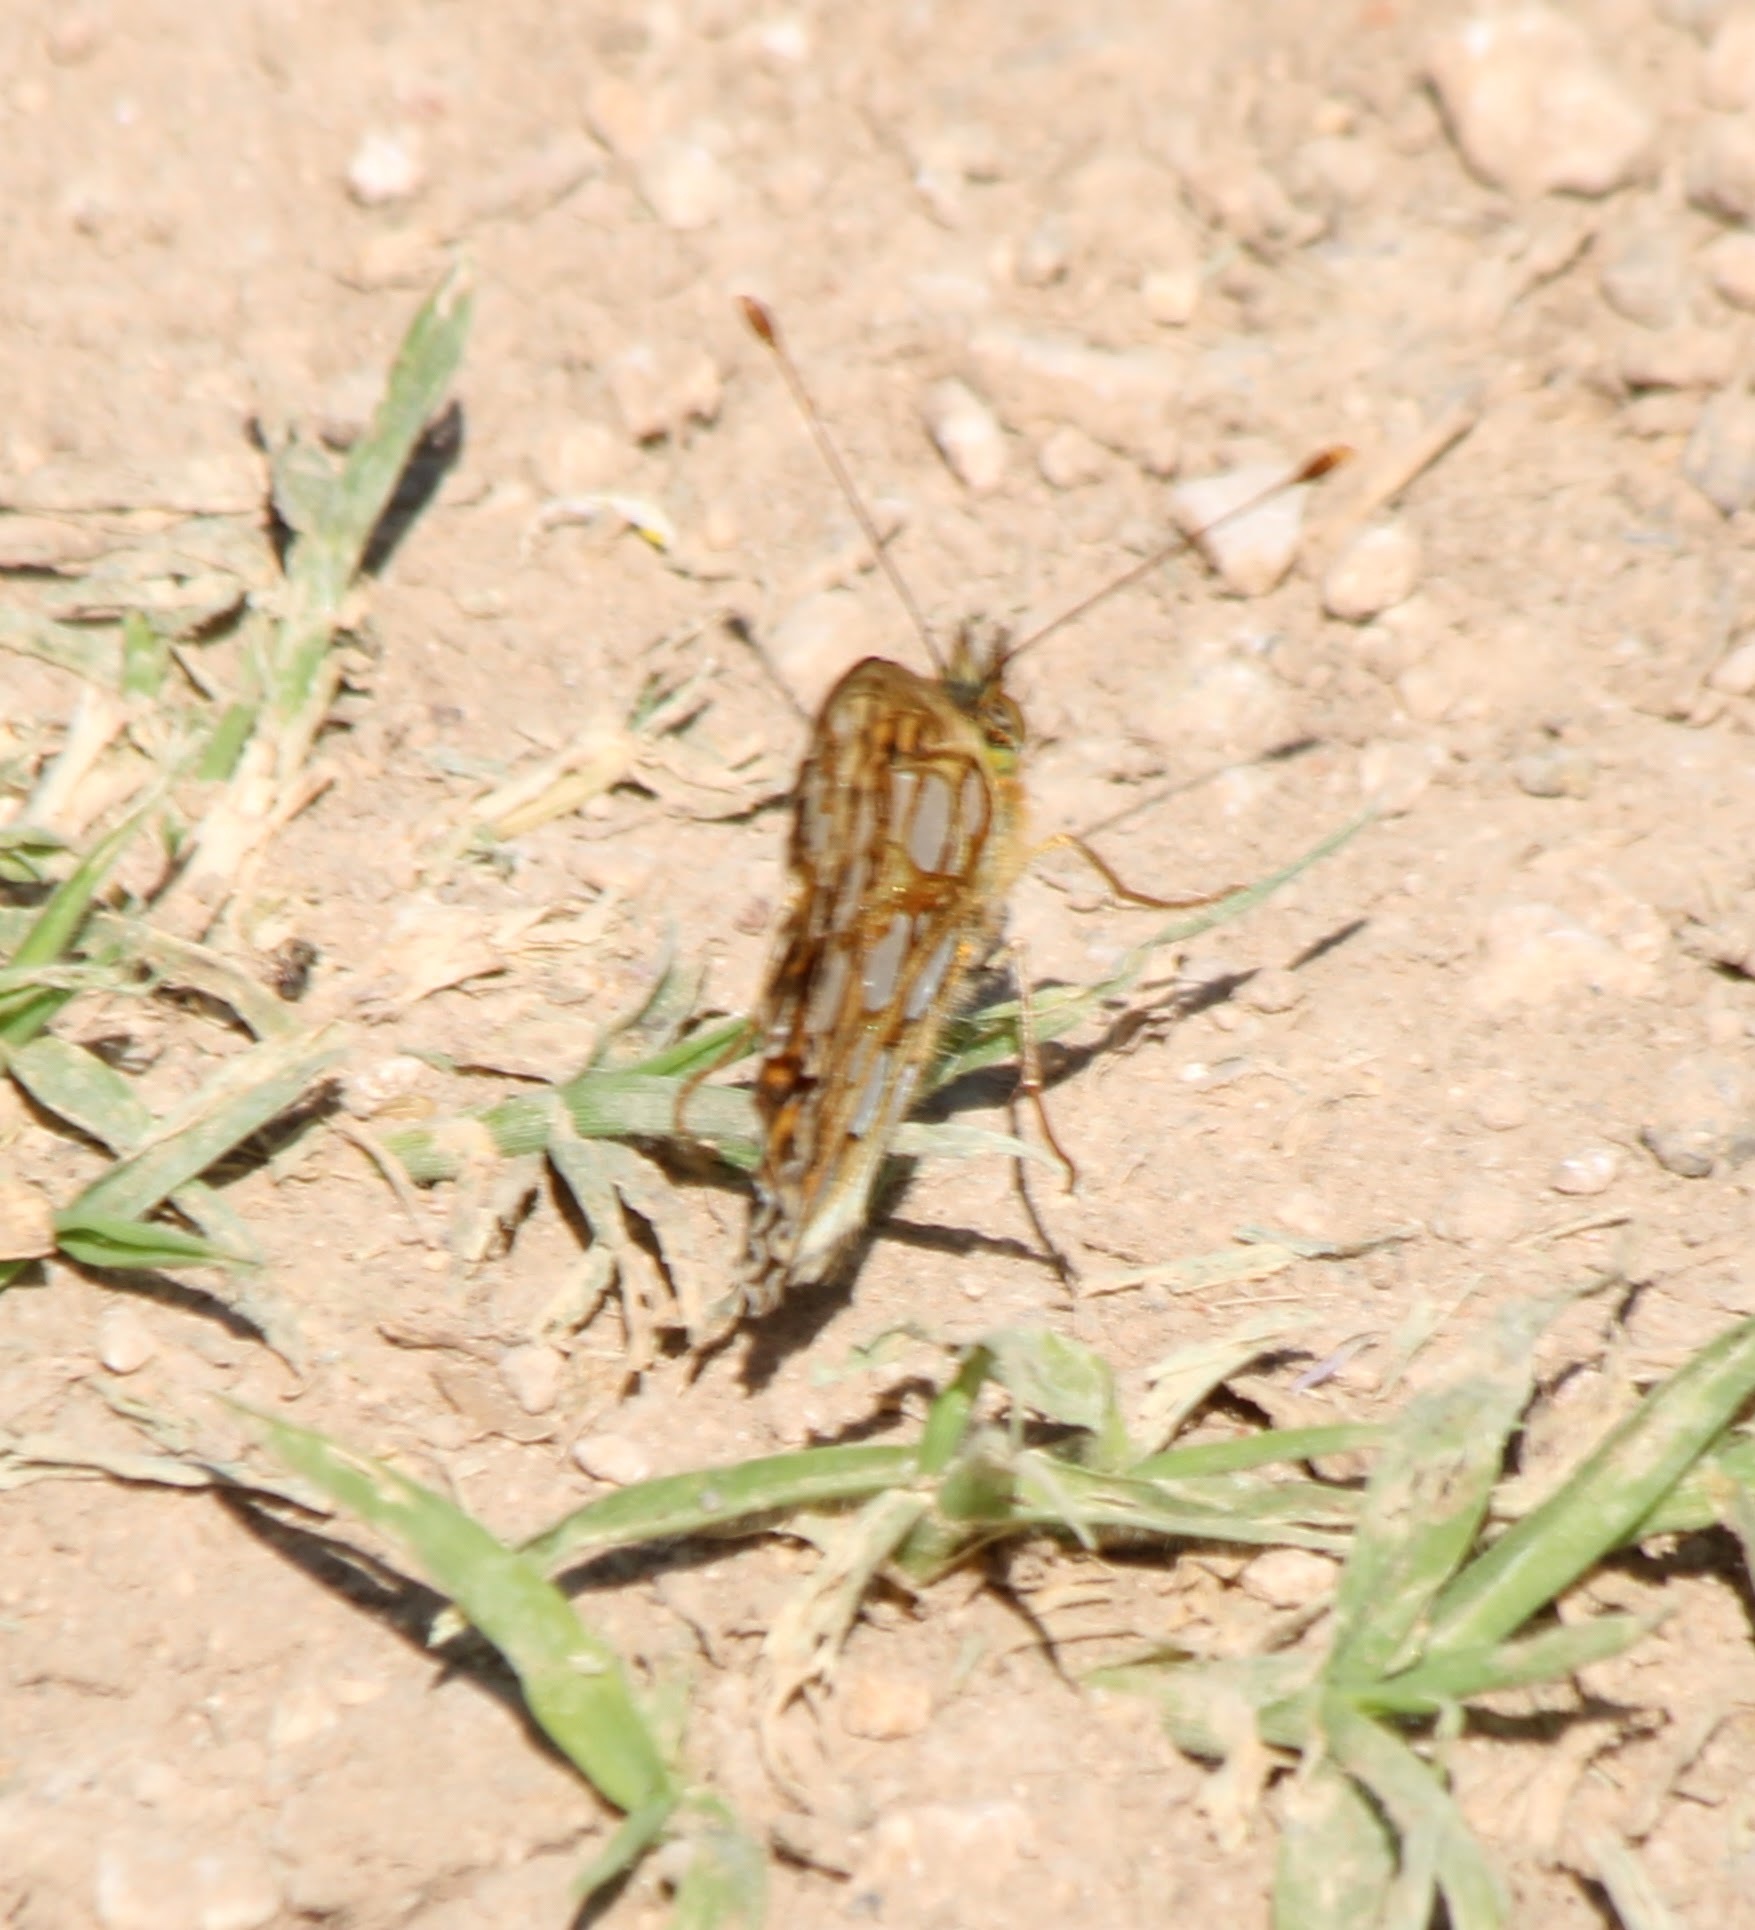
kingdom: Animalia
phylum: Arthropoda
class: Insecta
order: Lepidoptera
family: Nymphalidae
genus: Issoria
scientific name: Issoria lathonia
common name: Queen of spain fritillary
